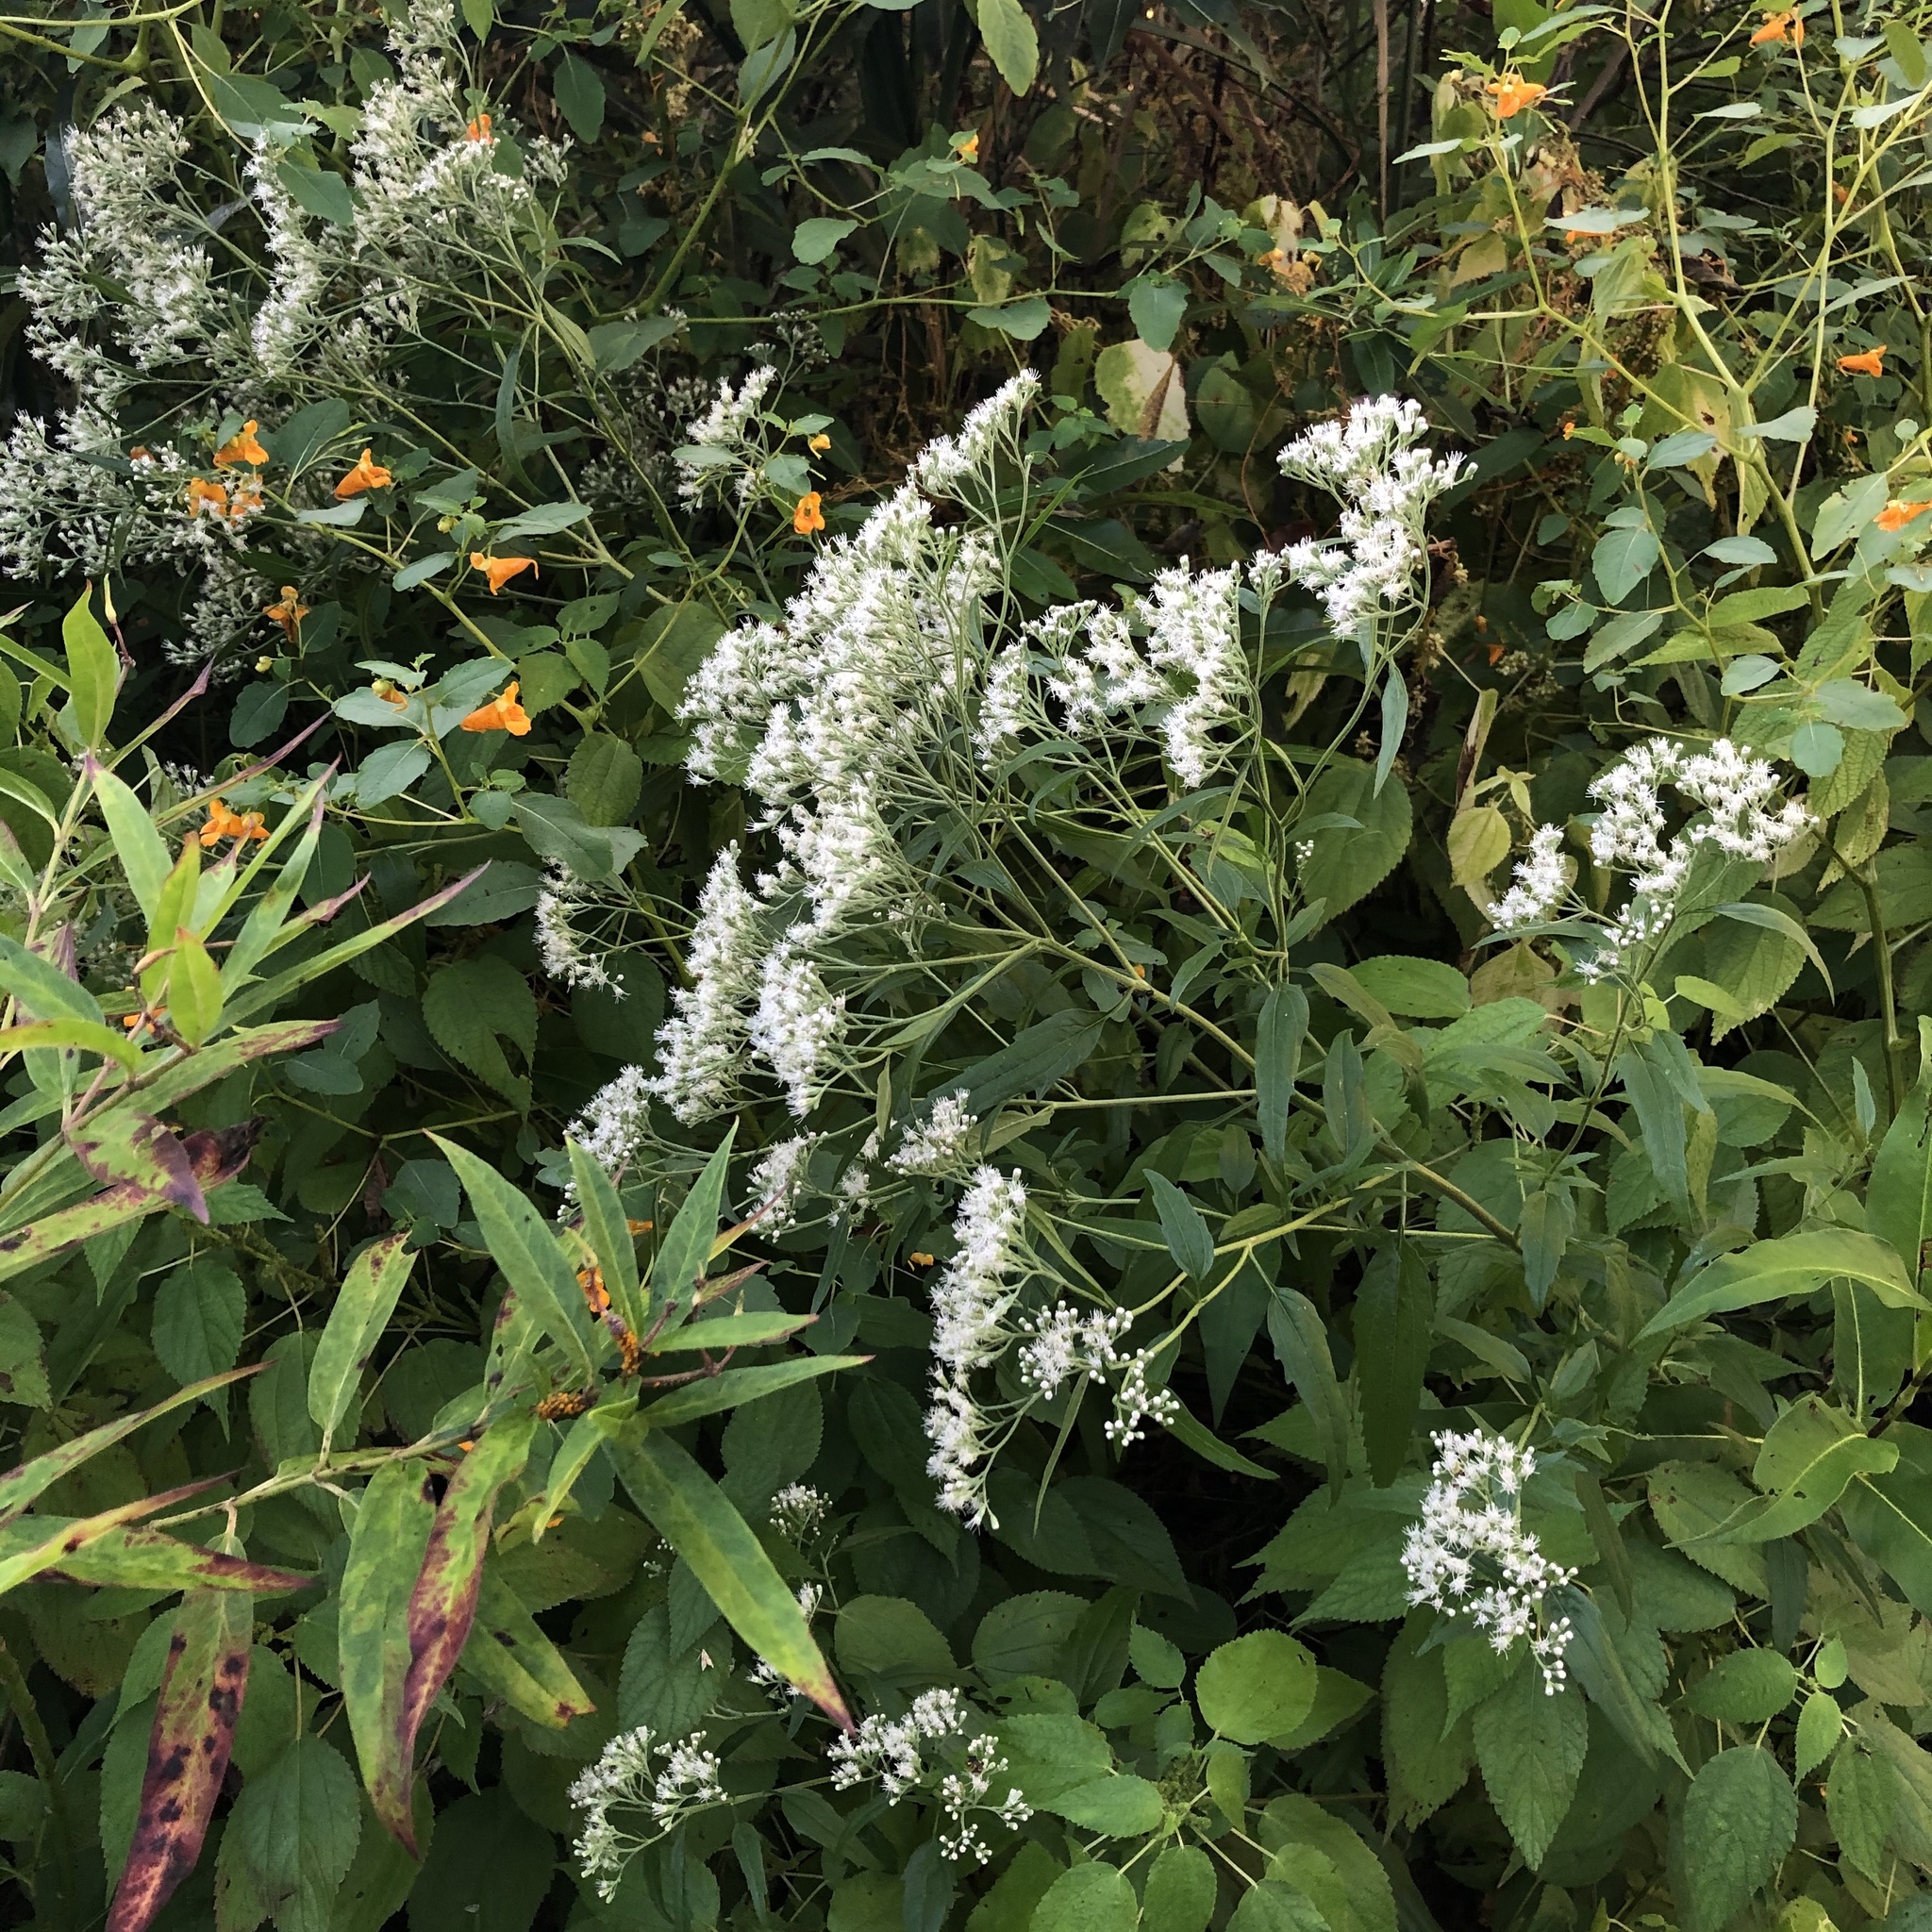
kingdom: Plantae
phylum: Tracheophyta
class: Magnoliopsida
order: Asterales
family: Asteraceae
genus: Eupatorium
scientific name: Eupatorium serotinum
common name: Late boneset
